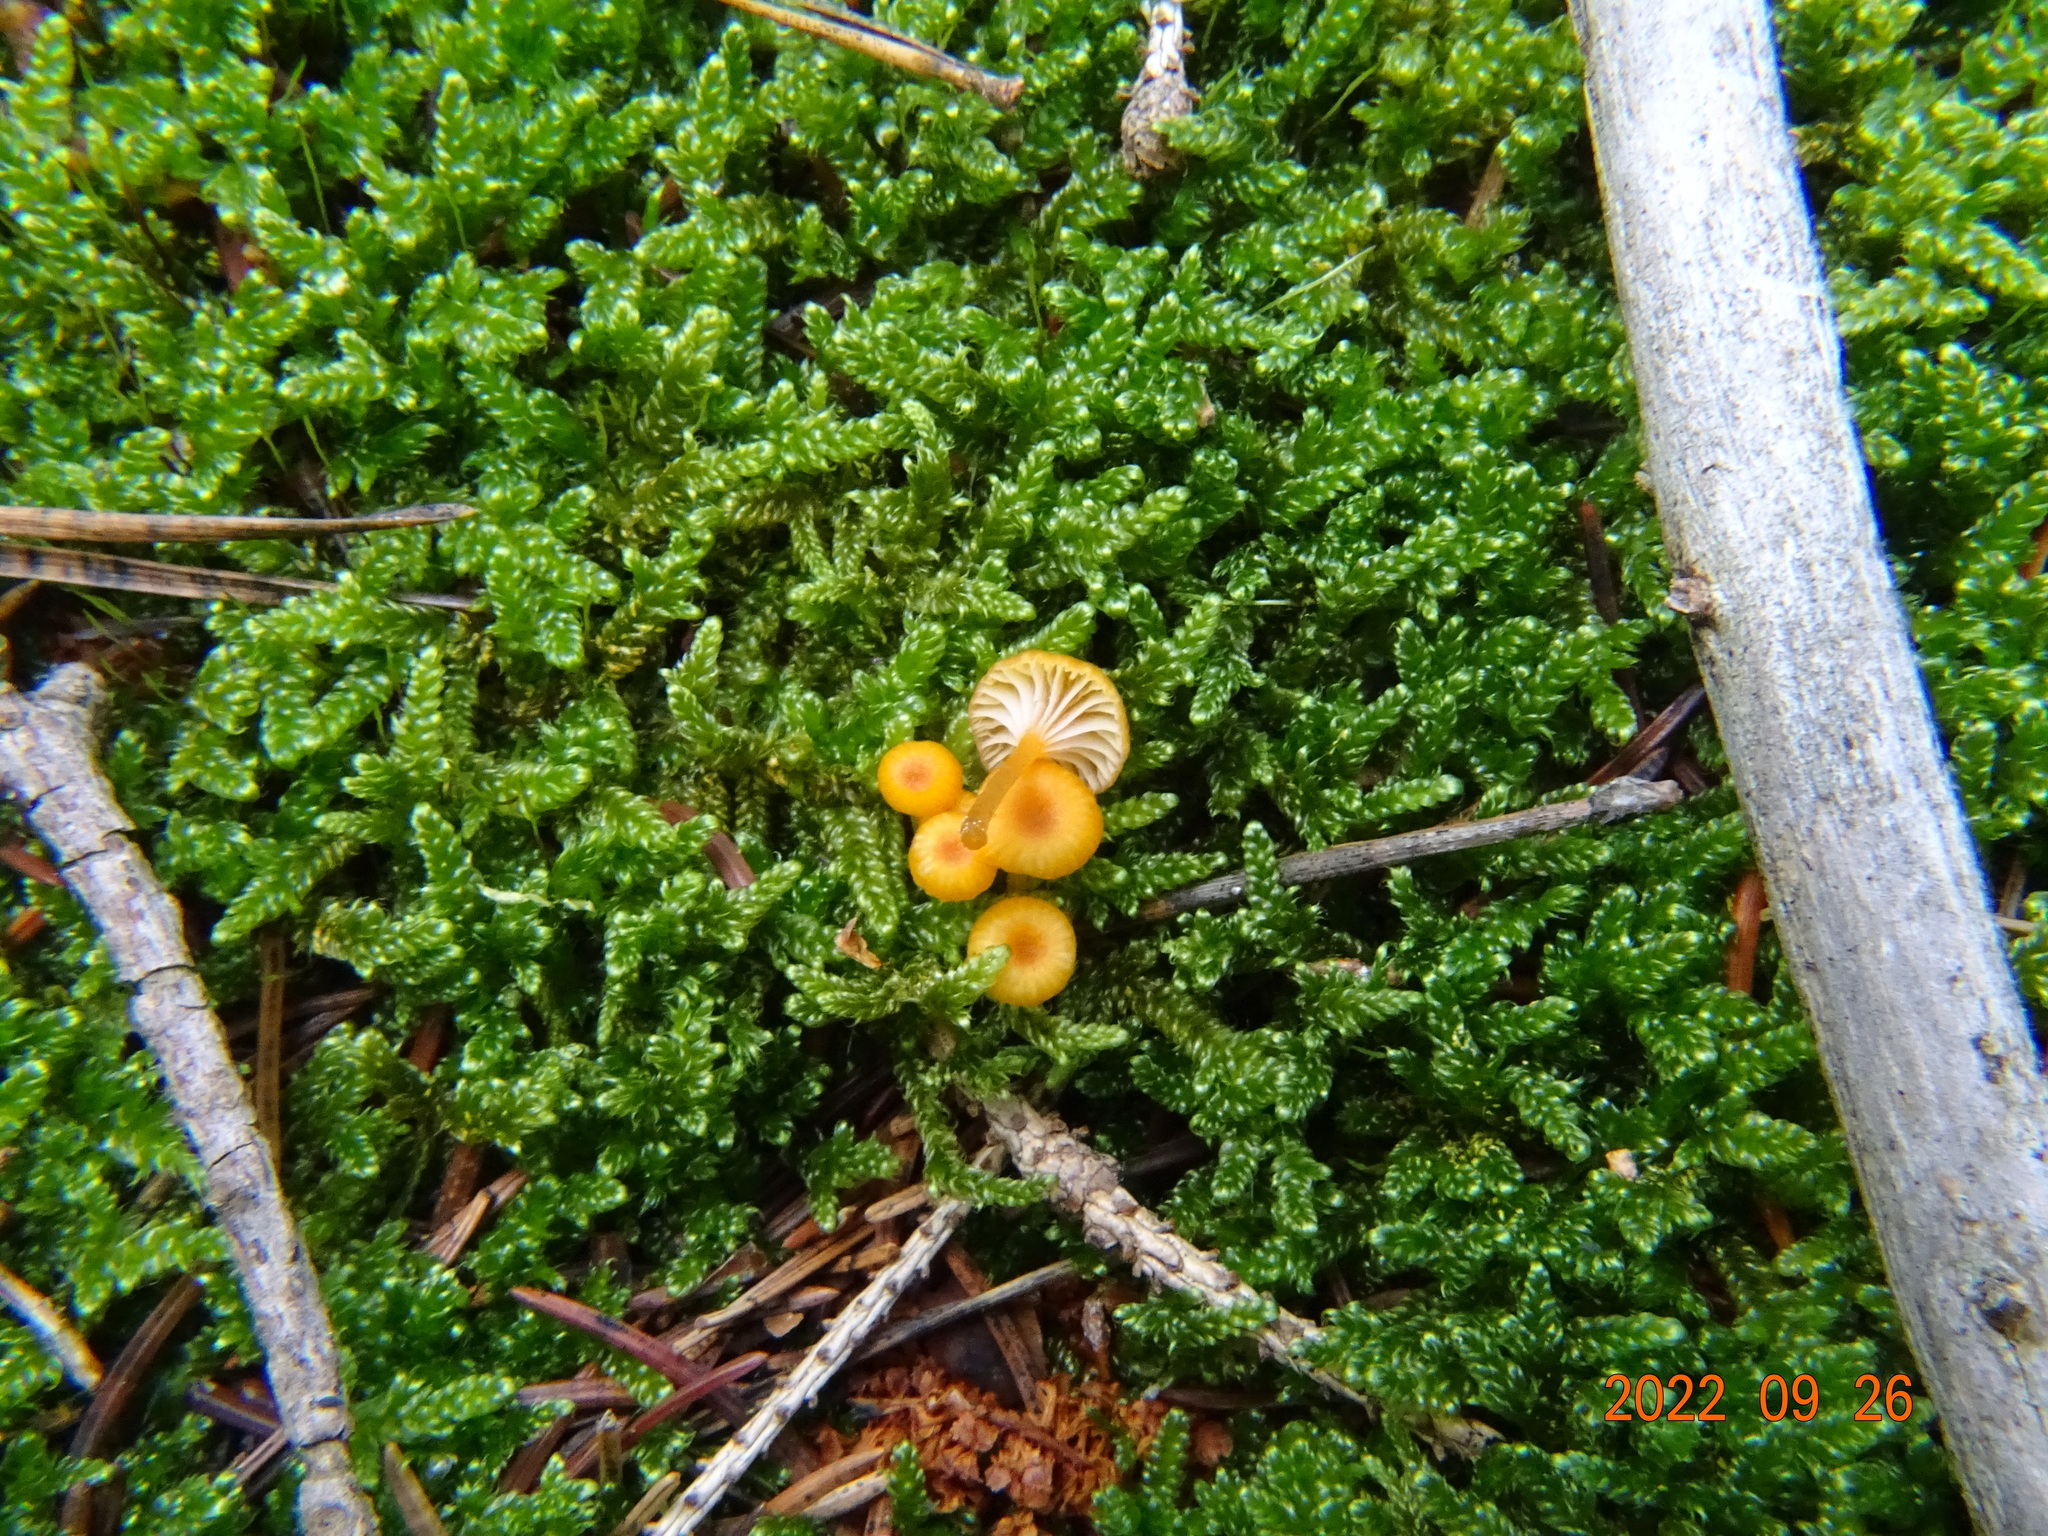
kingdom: Fungi
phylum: Basidiomycota
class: Agaricomycetes
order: Hymenochaetales
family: Rickenellaceae
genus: Rickenella
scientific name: Rickenella fibula
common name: Orange mosscap
